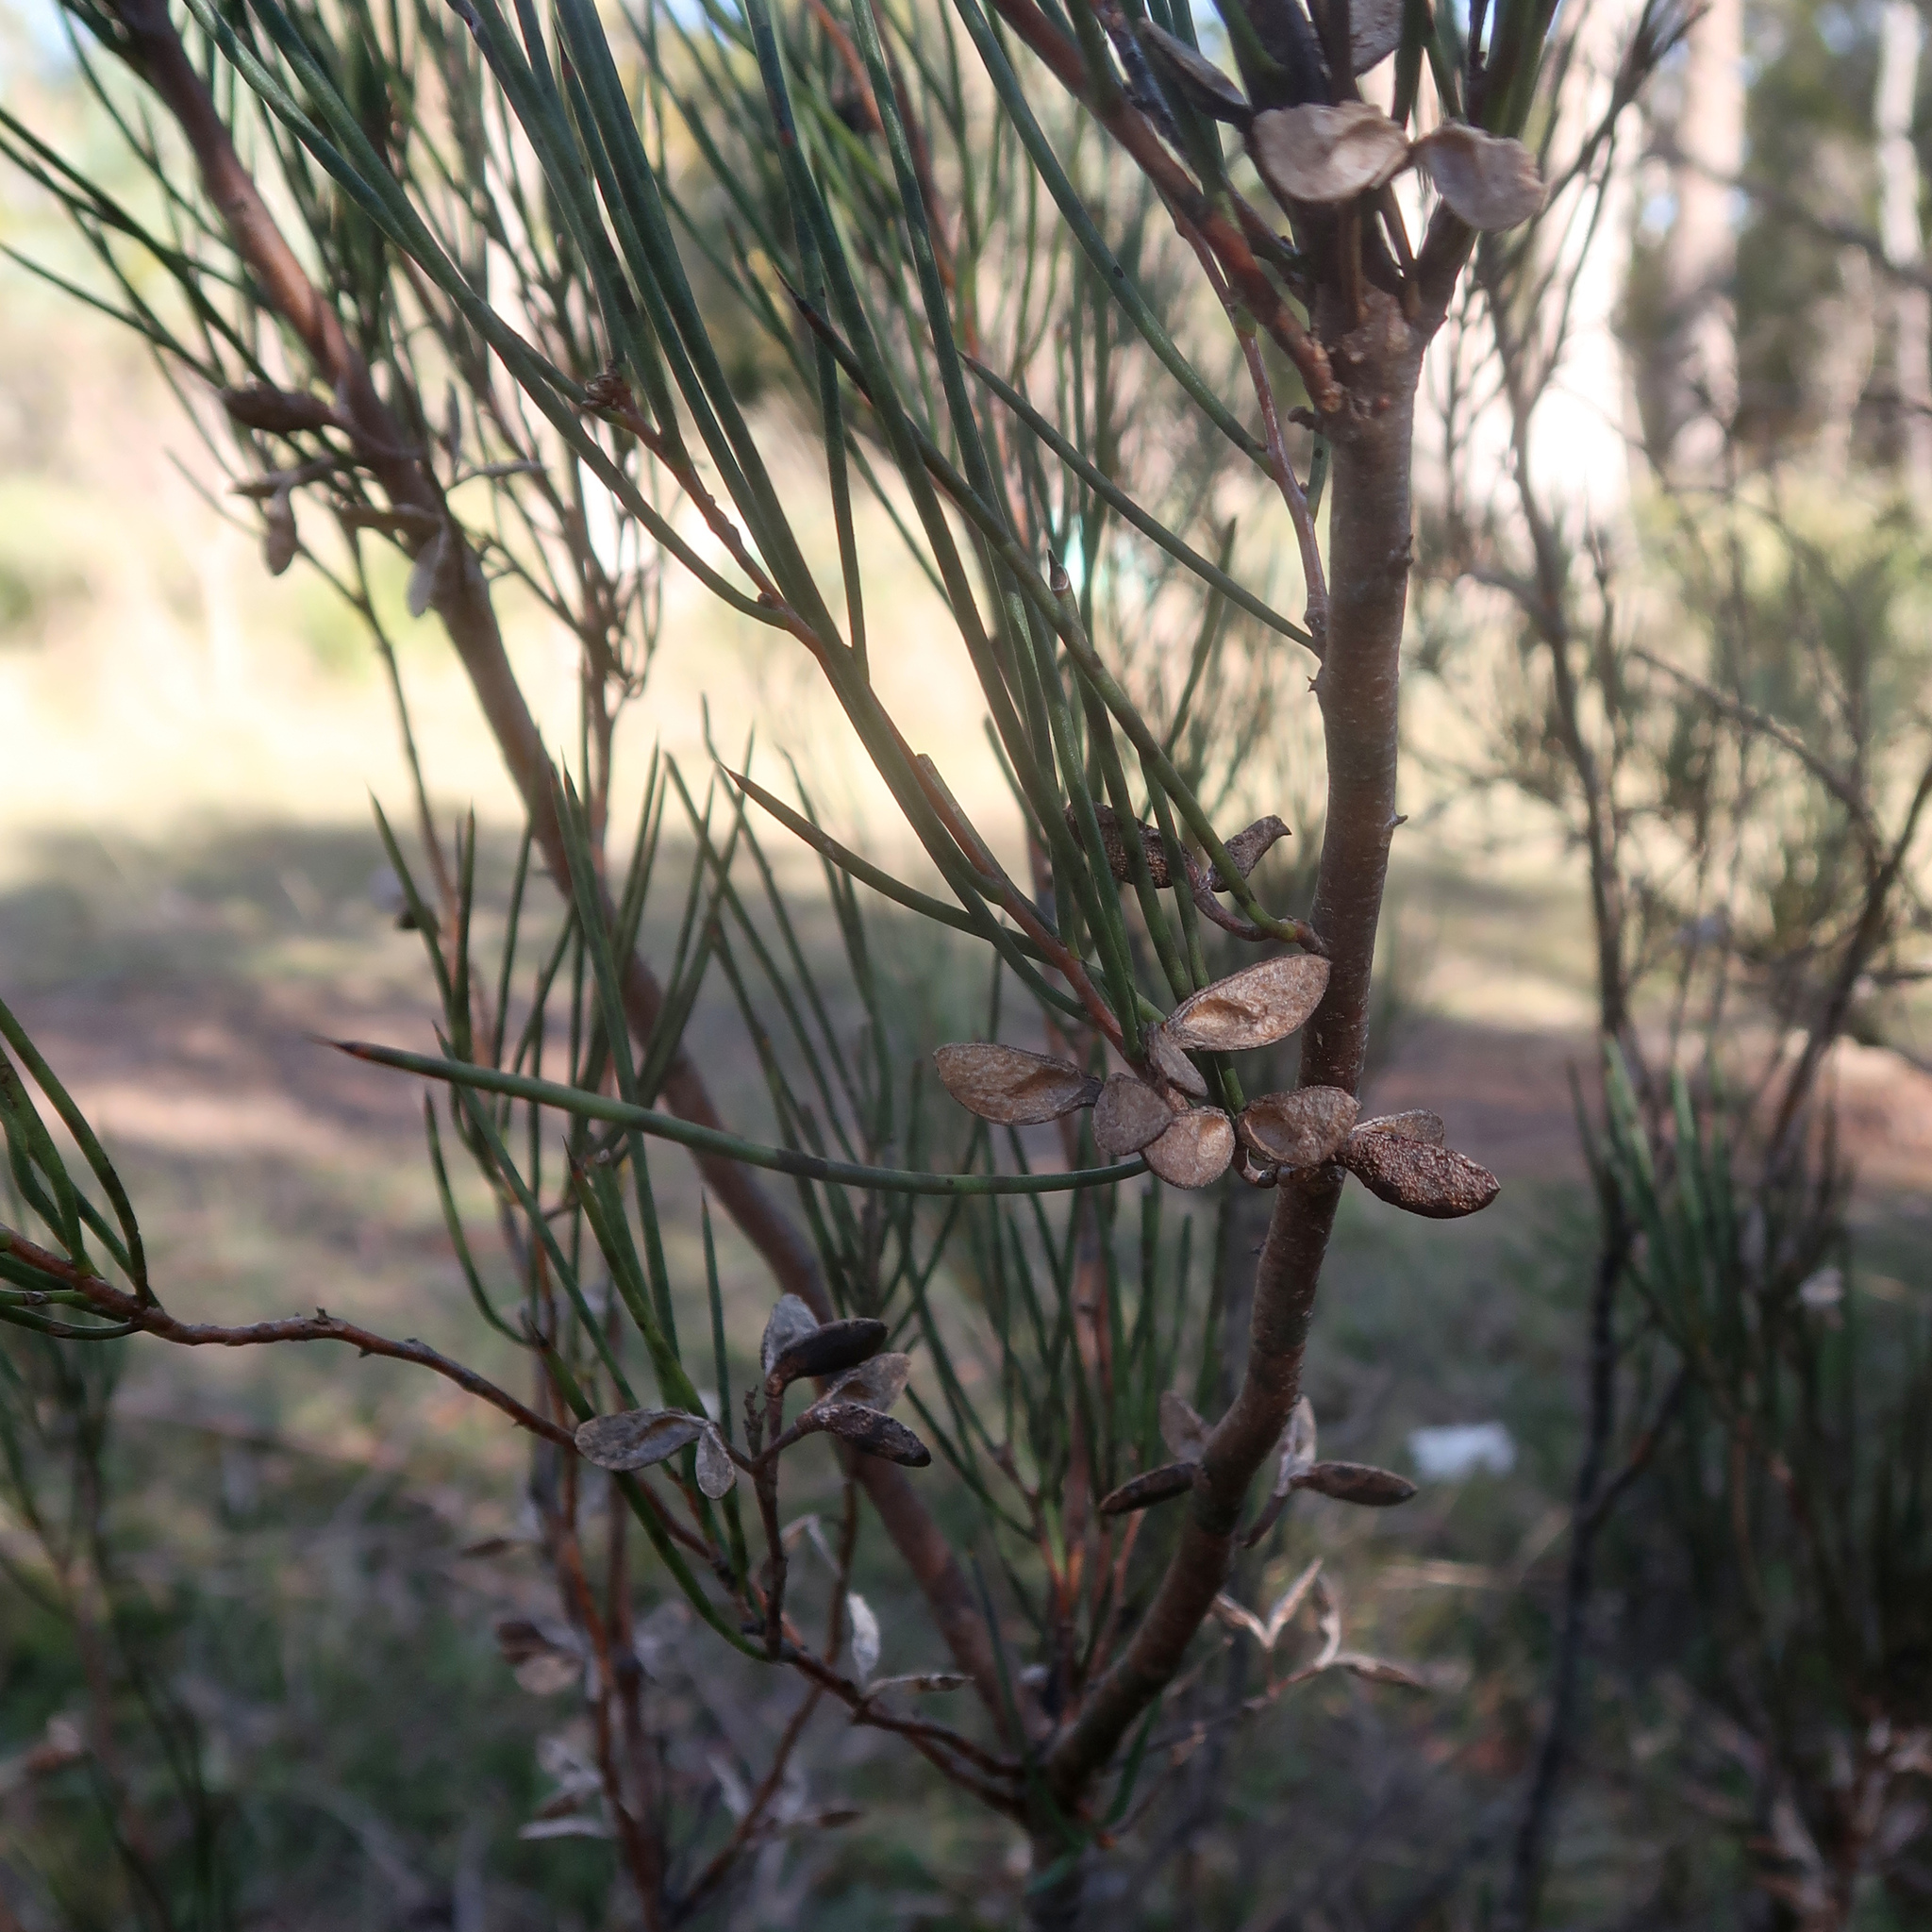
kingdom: Plantae
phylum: Tracheophyta
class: Magnoliopsida
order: Proteales
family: Proteaceae
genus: Hakea
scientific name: Hakea microcarpa
